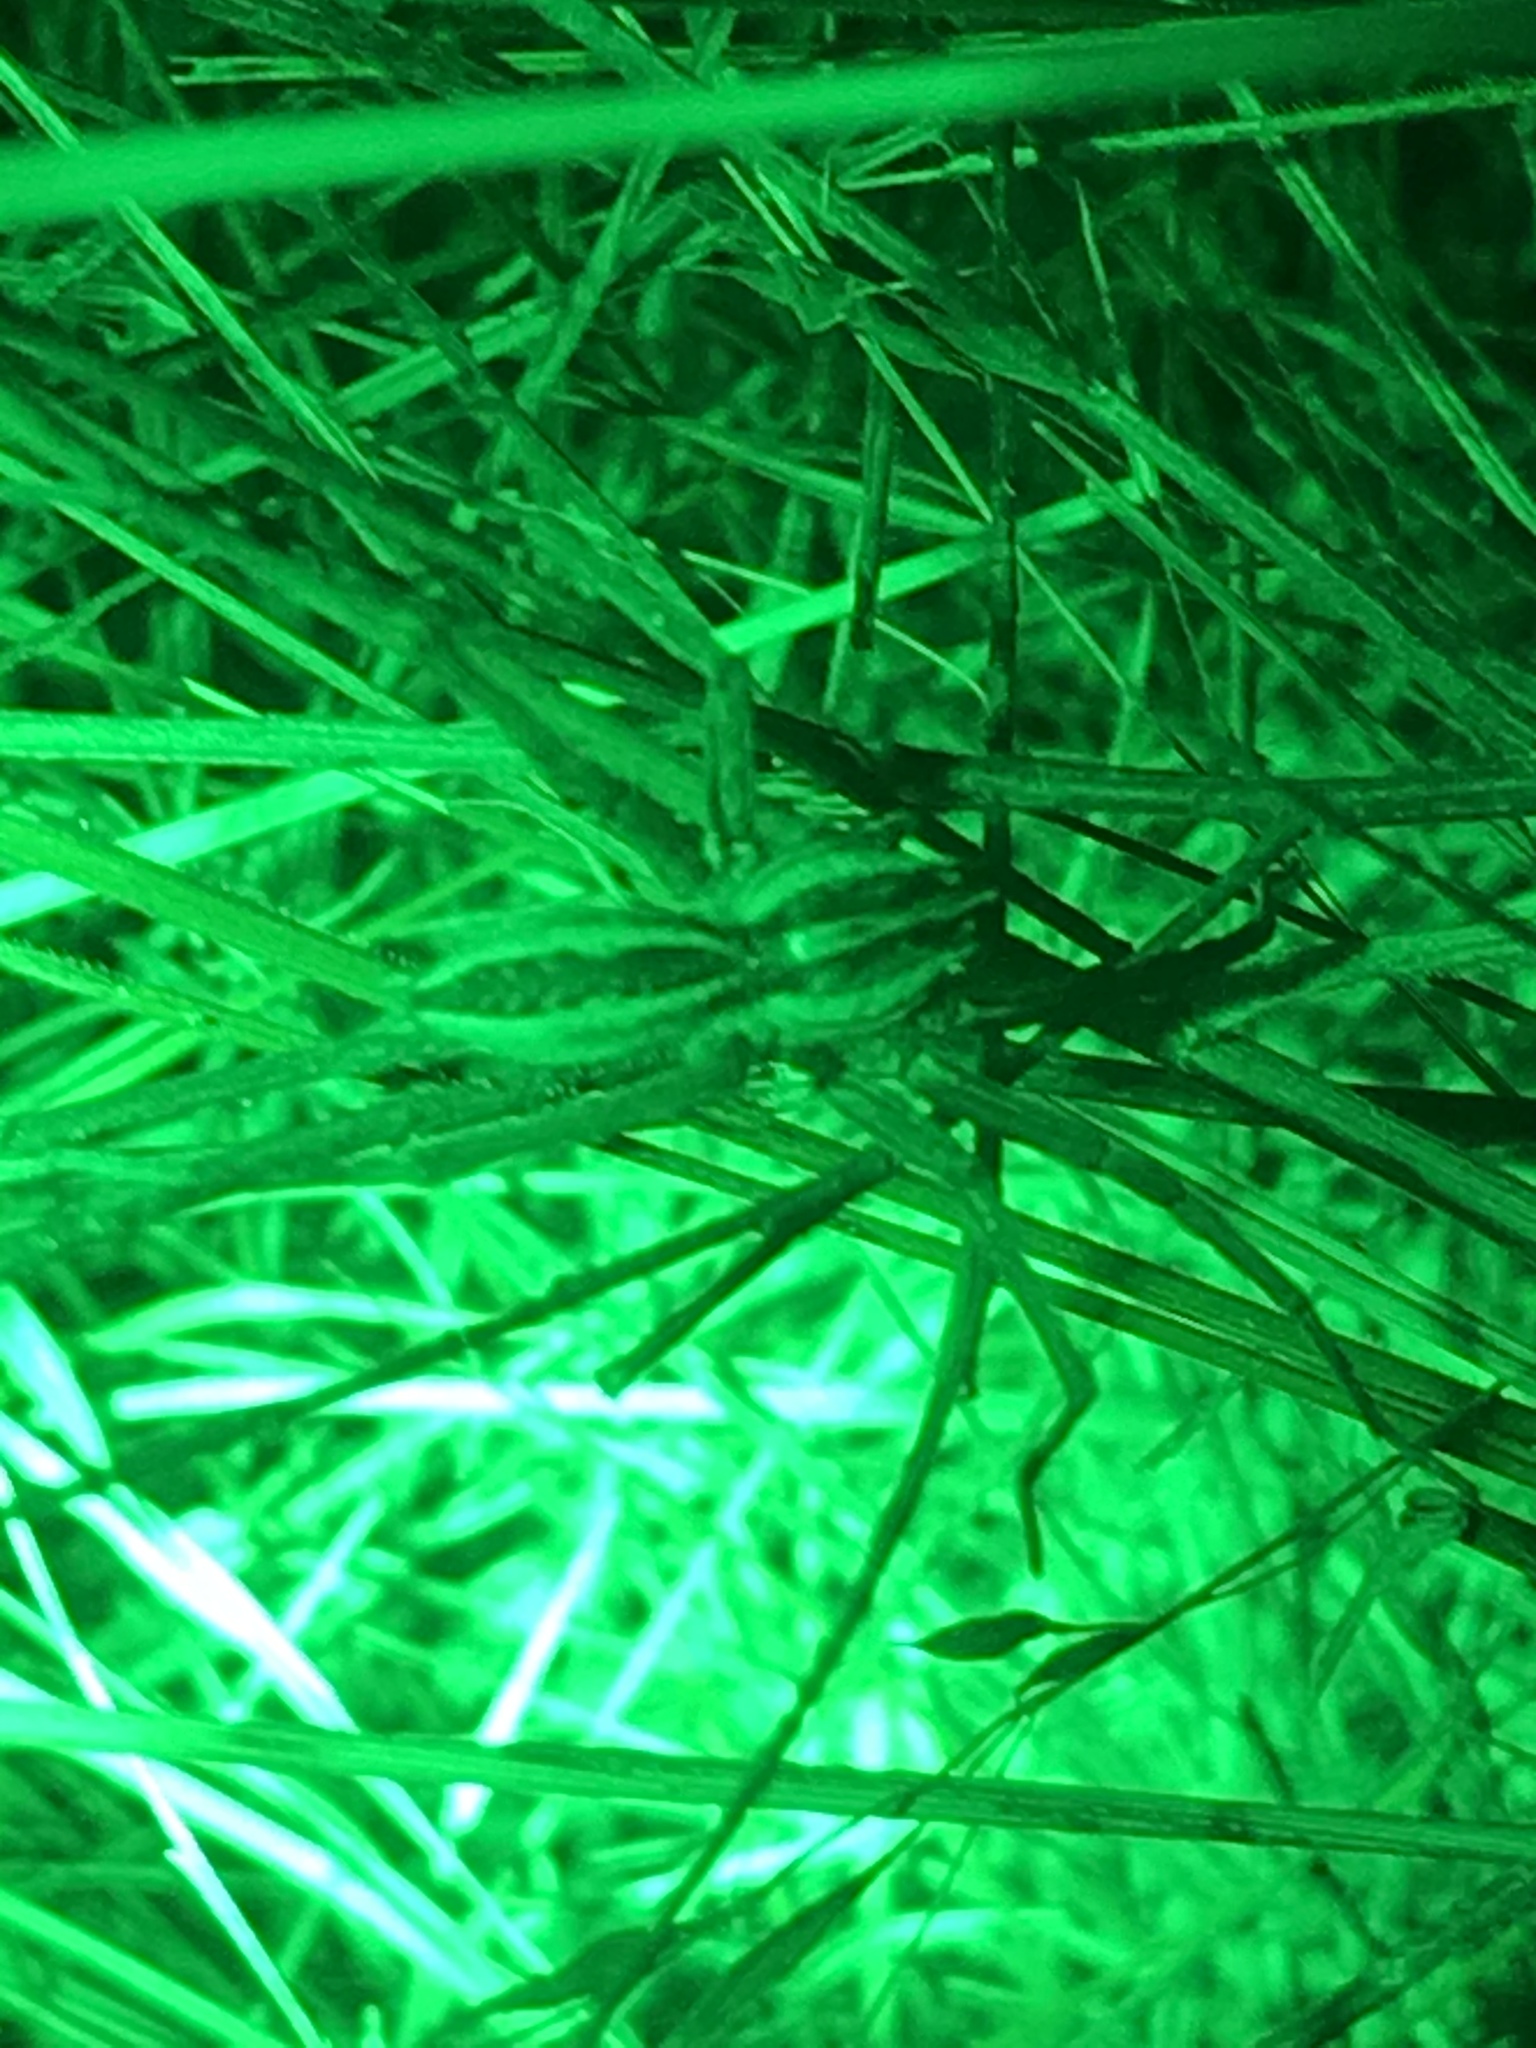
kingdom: Animalia
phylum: Arthropoda
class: Arachnida
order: Araneae
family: Lycosidae
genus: Rabidosa
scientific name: Rabidosa rabida
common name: Rabid wolf spider
